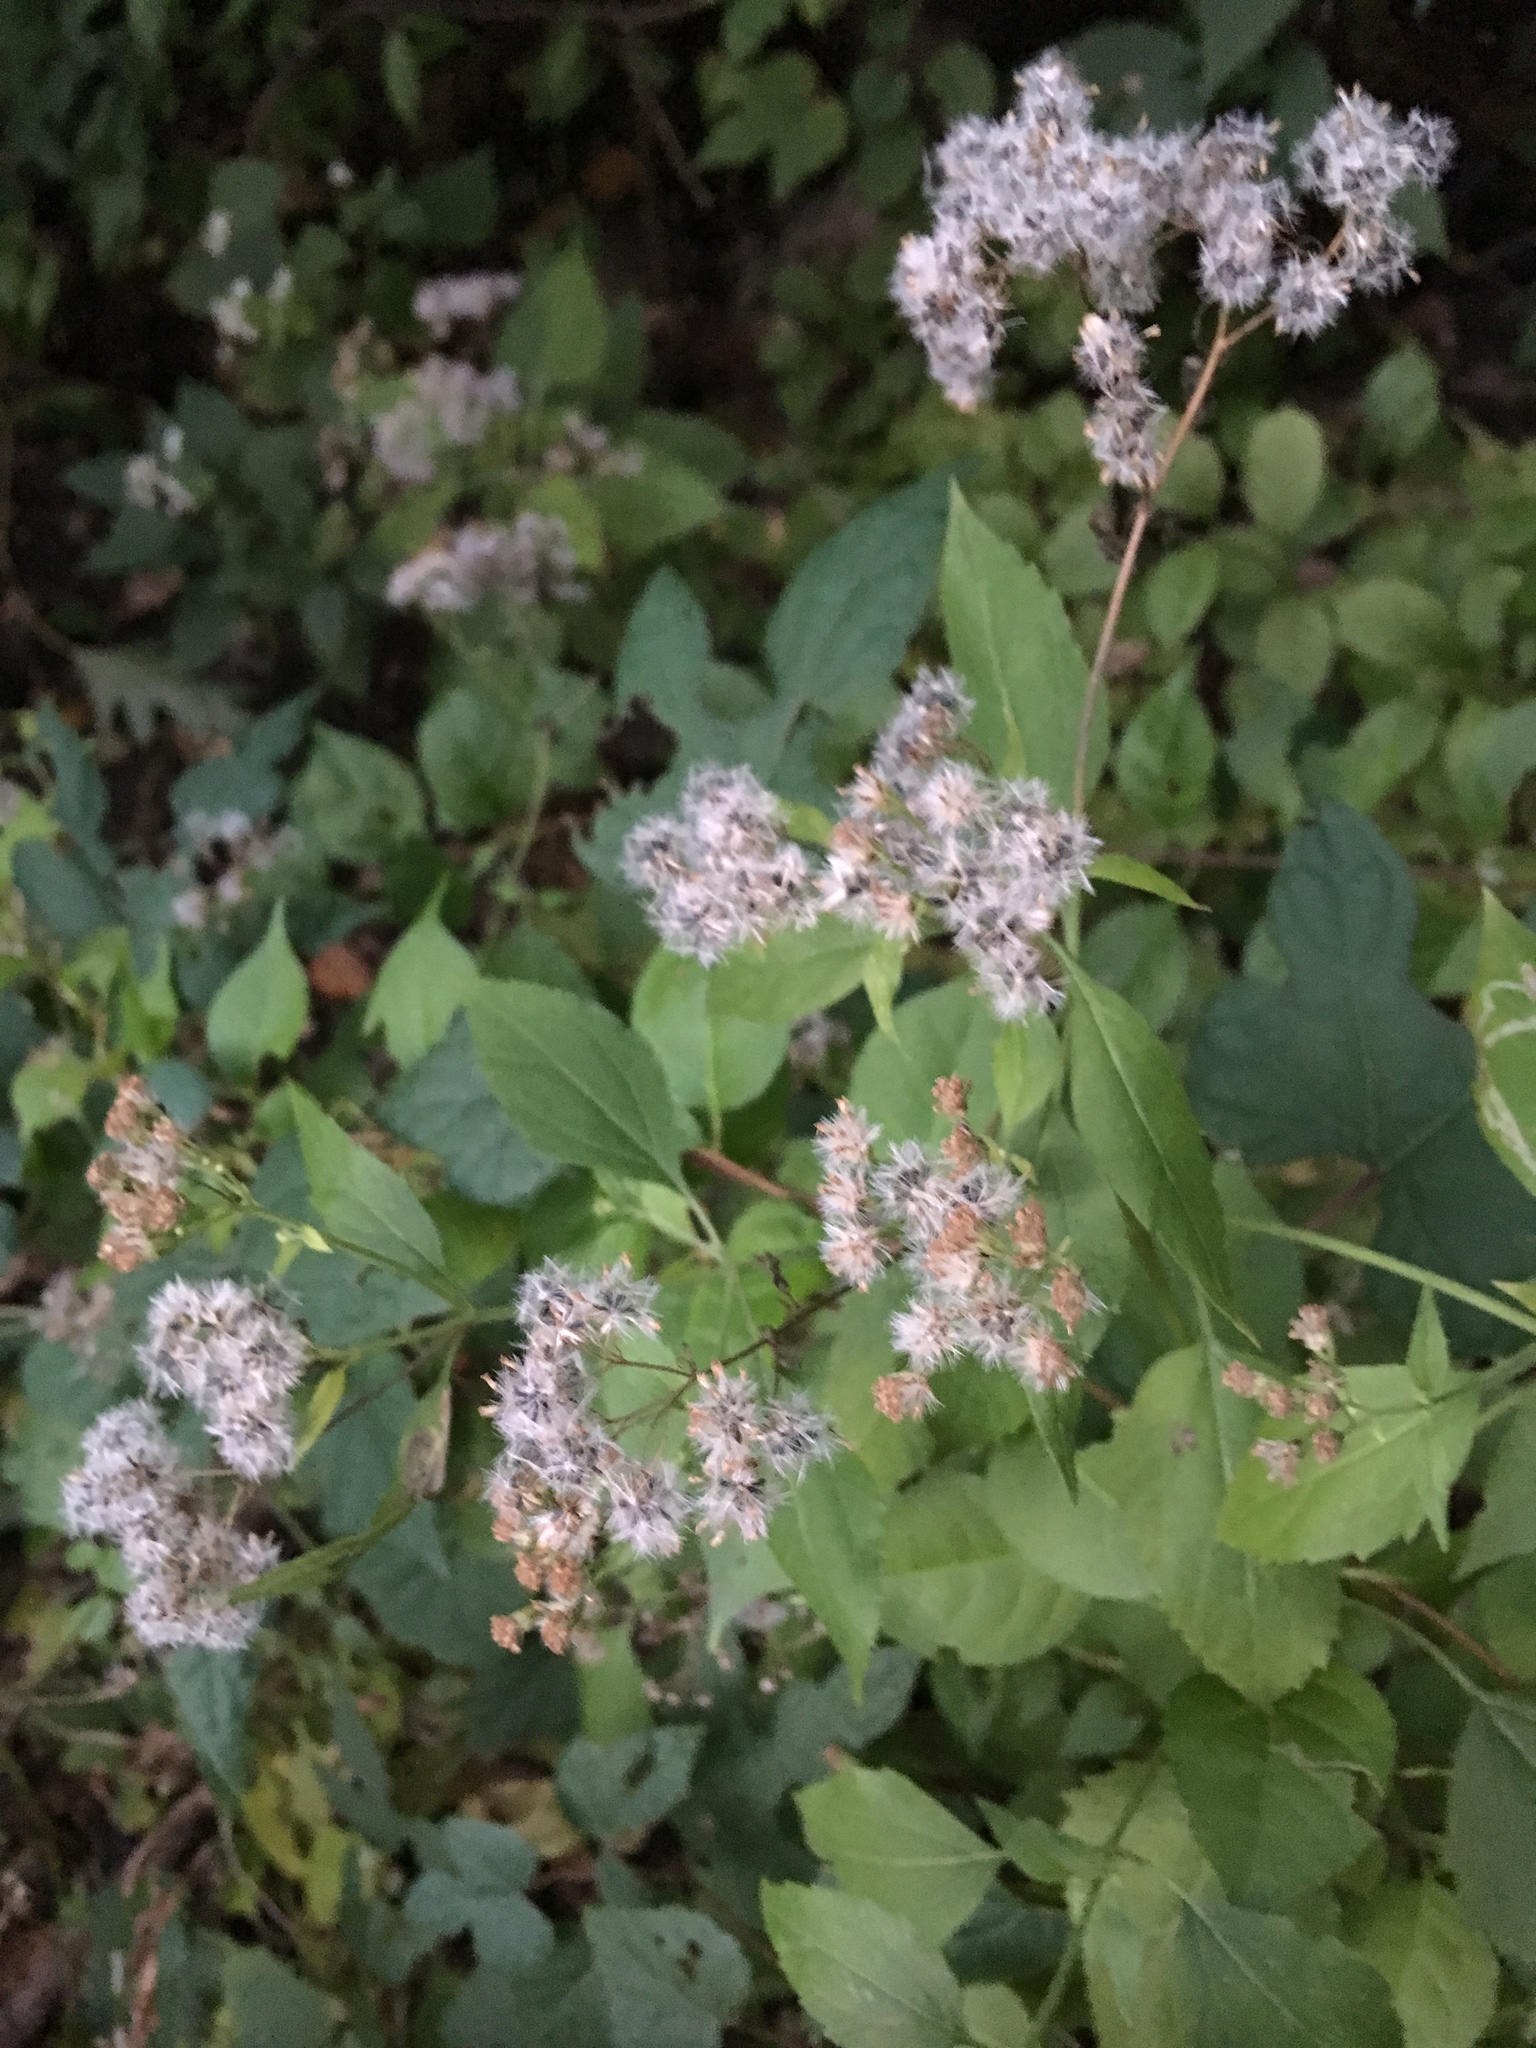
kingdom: Plantae
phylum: Tracheophyta
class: Magnoliopsida
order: Asterales
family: Asteraceae
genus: Ageratina
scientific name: Ageratina altissima
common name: White snakeroot
